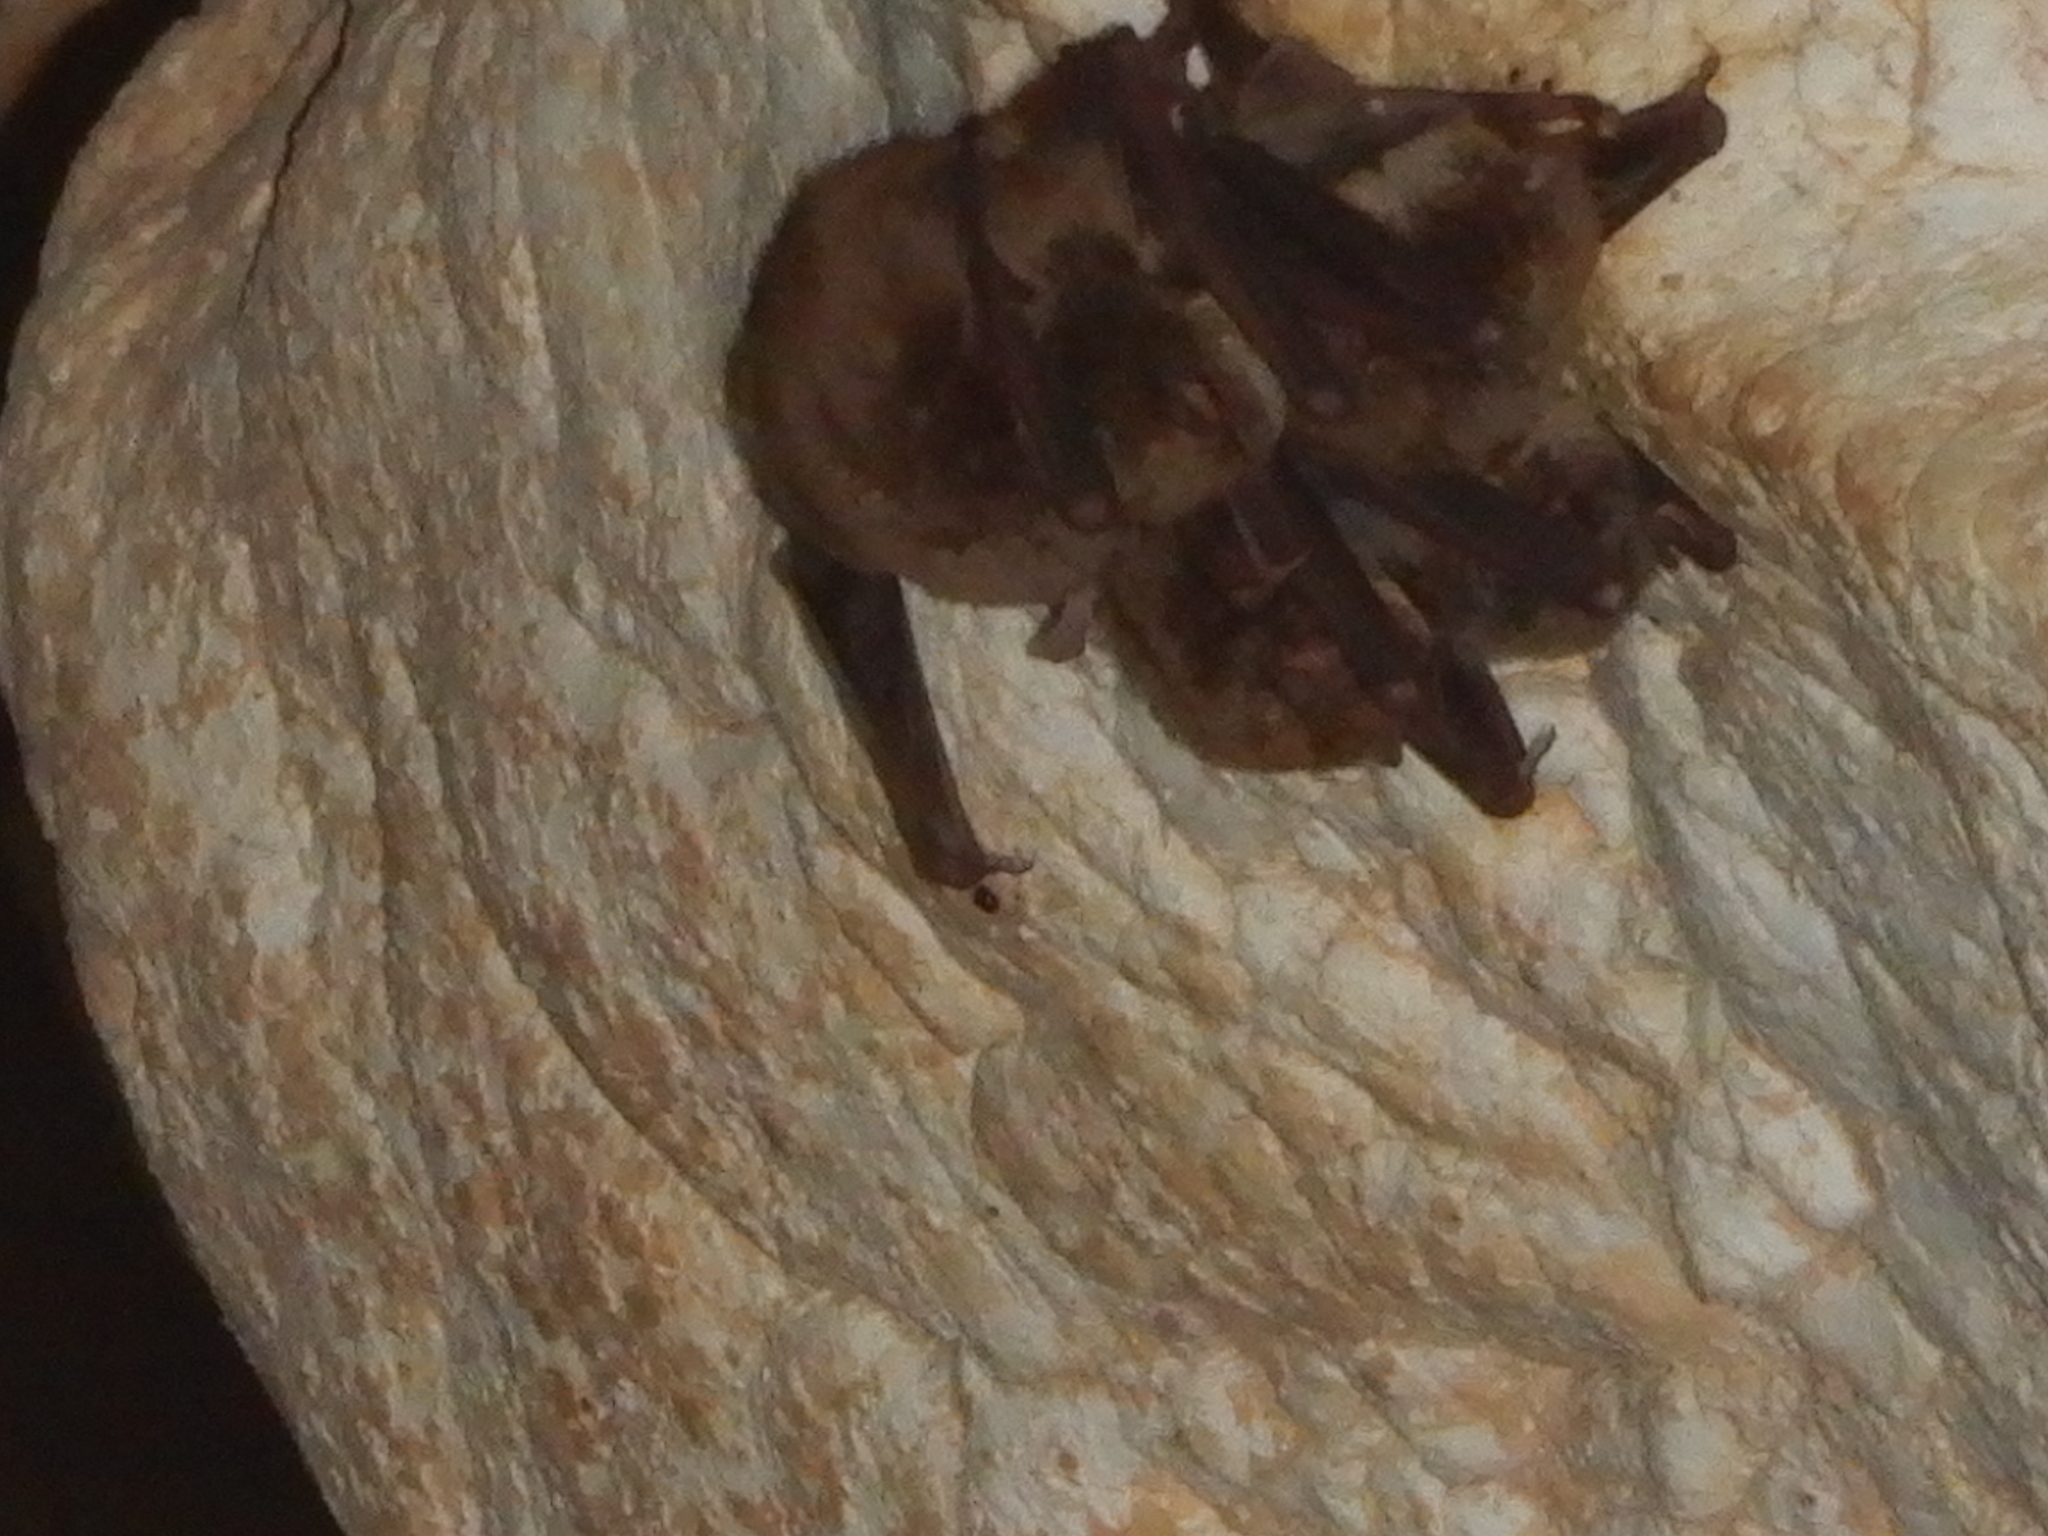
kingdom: Animalia
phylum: Chordata
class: Mammalia
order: Chiroptera
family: Miniopteridae
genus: Miniopterus
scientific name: Miniopterus schreibersii
